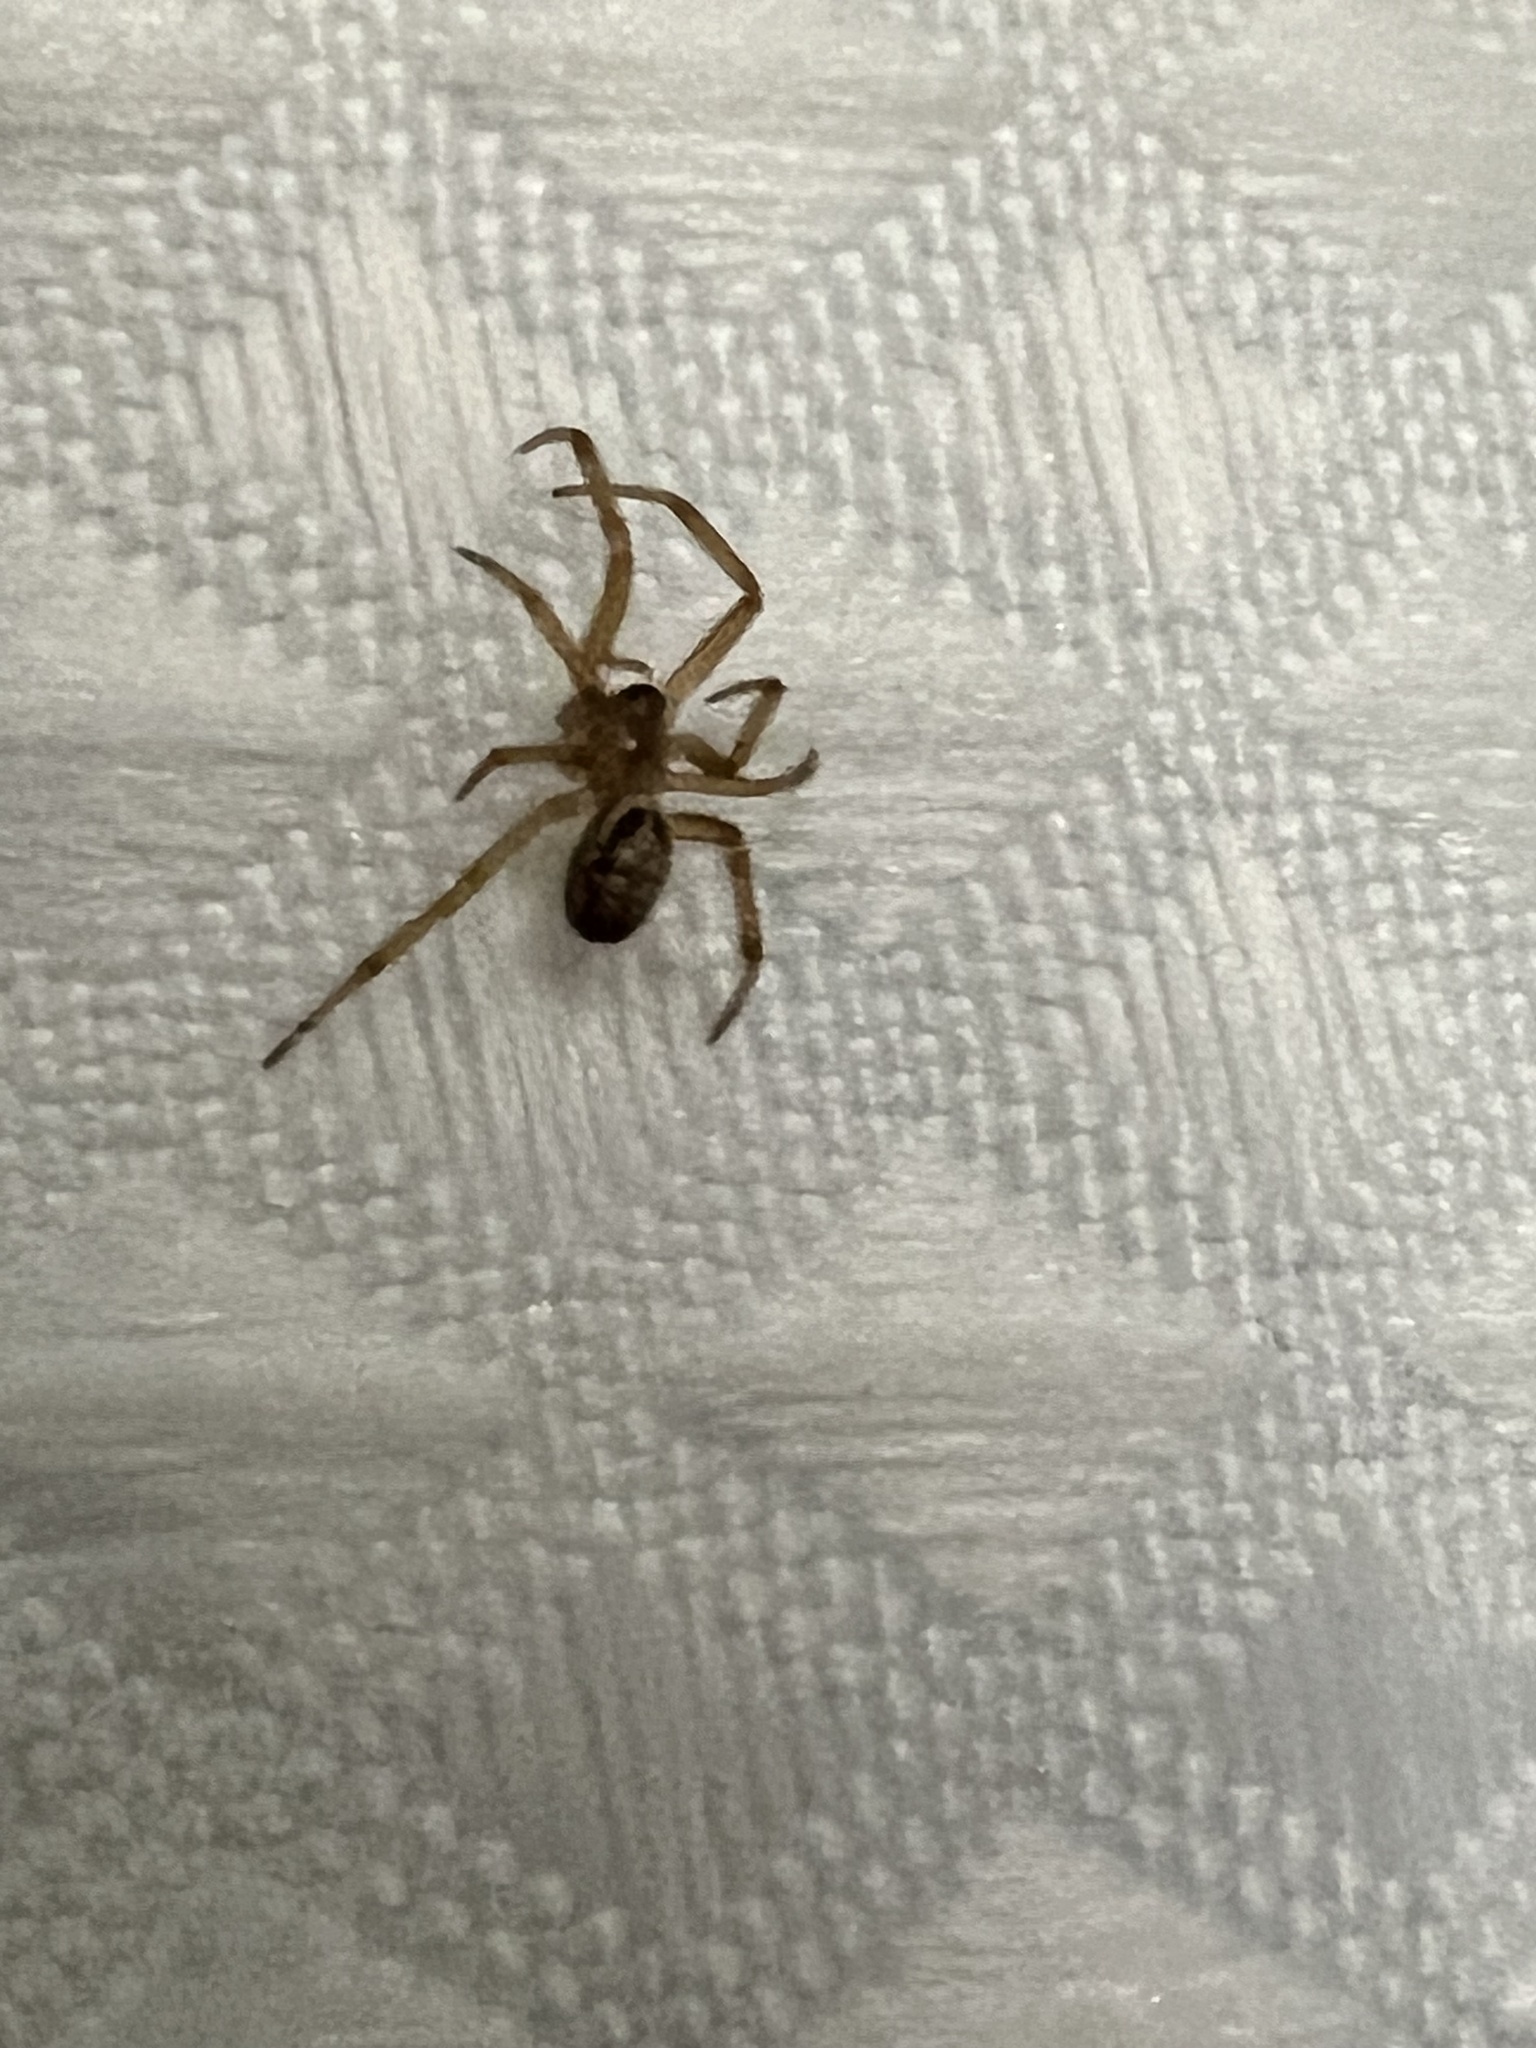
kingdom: Animalia
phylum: Arthropoda
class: Arachnida
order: Araneae
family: Theridiidae
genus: Steatoda
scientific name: Steatoda nobilis
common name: Cobweb weaver
